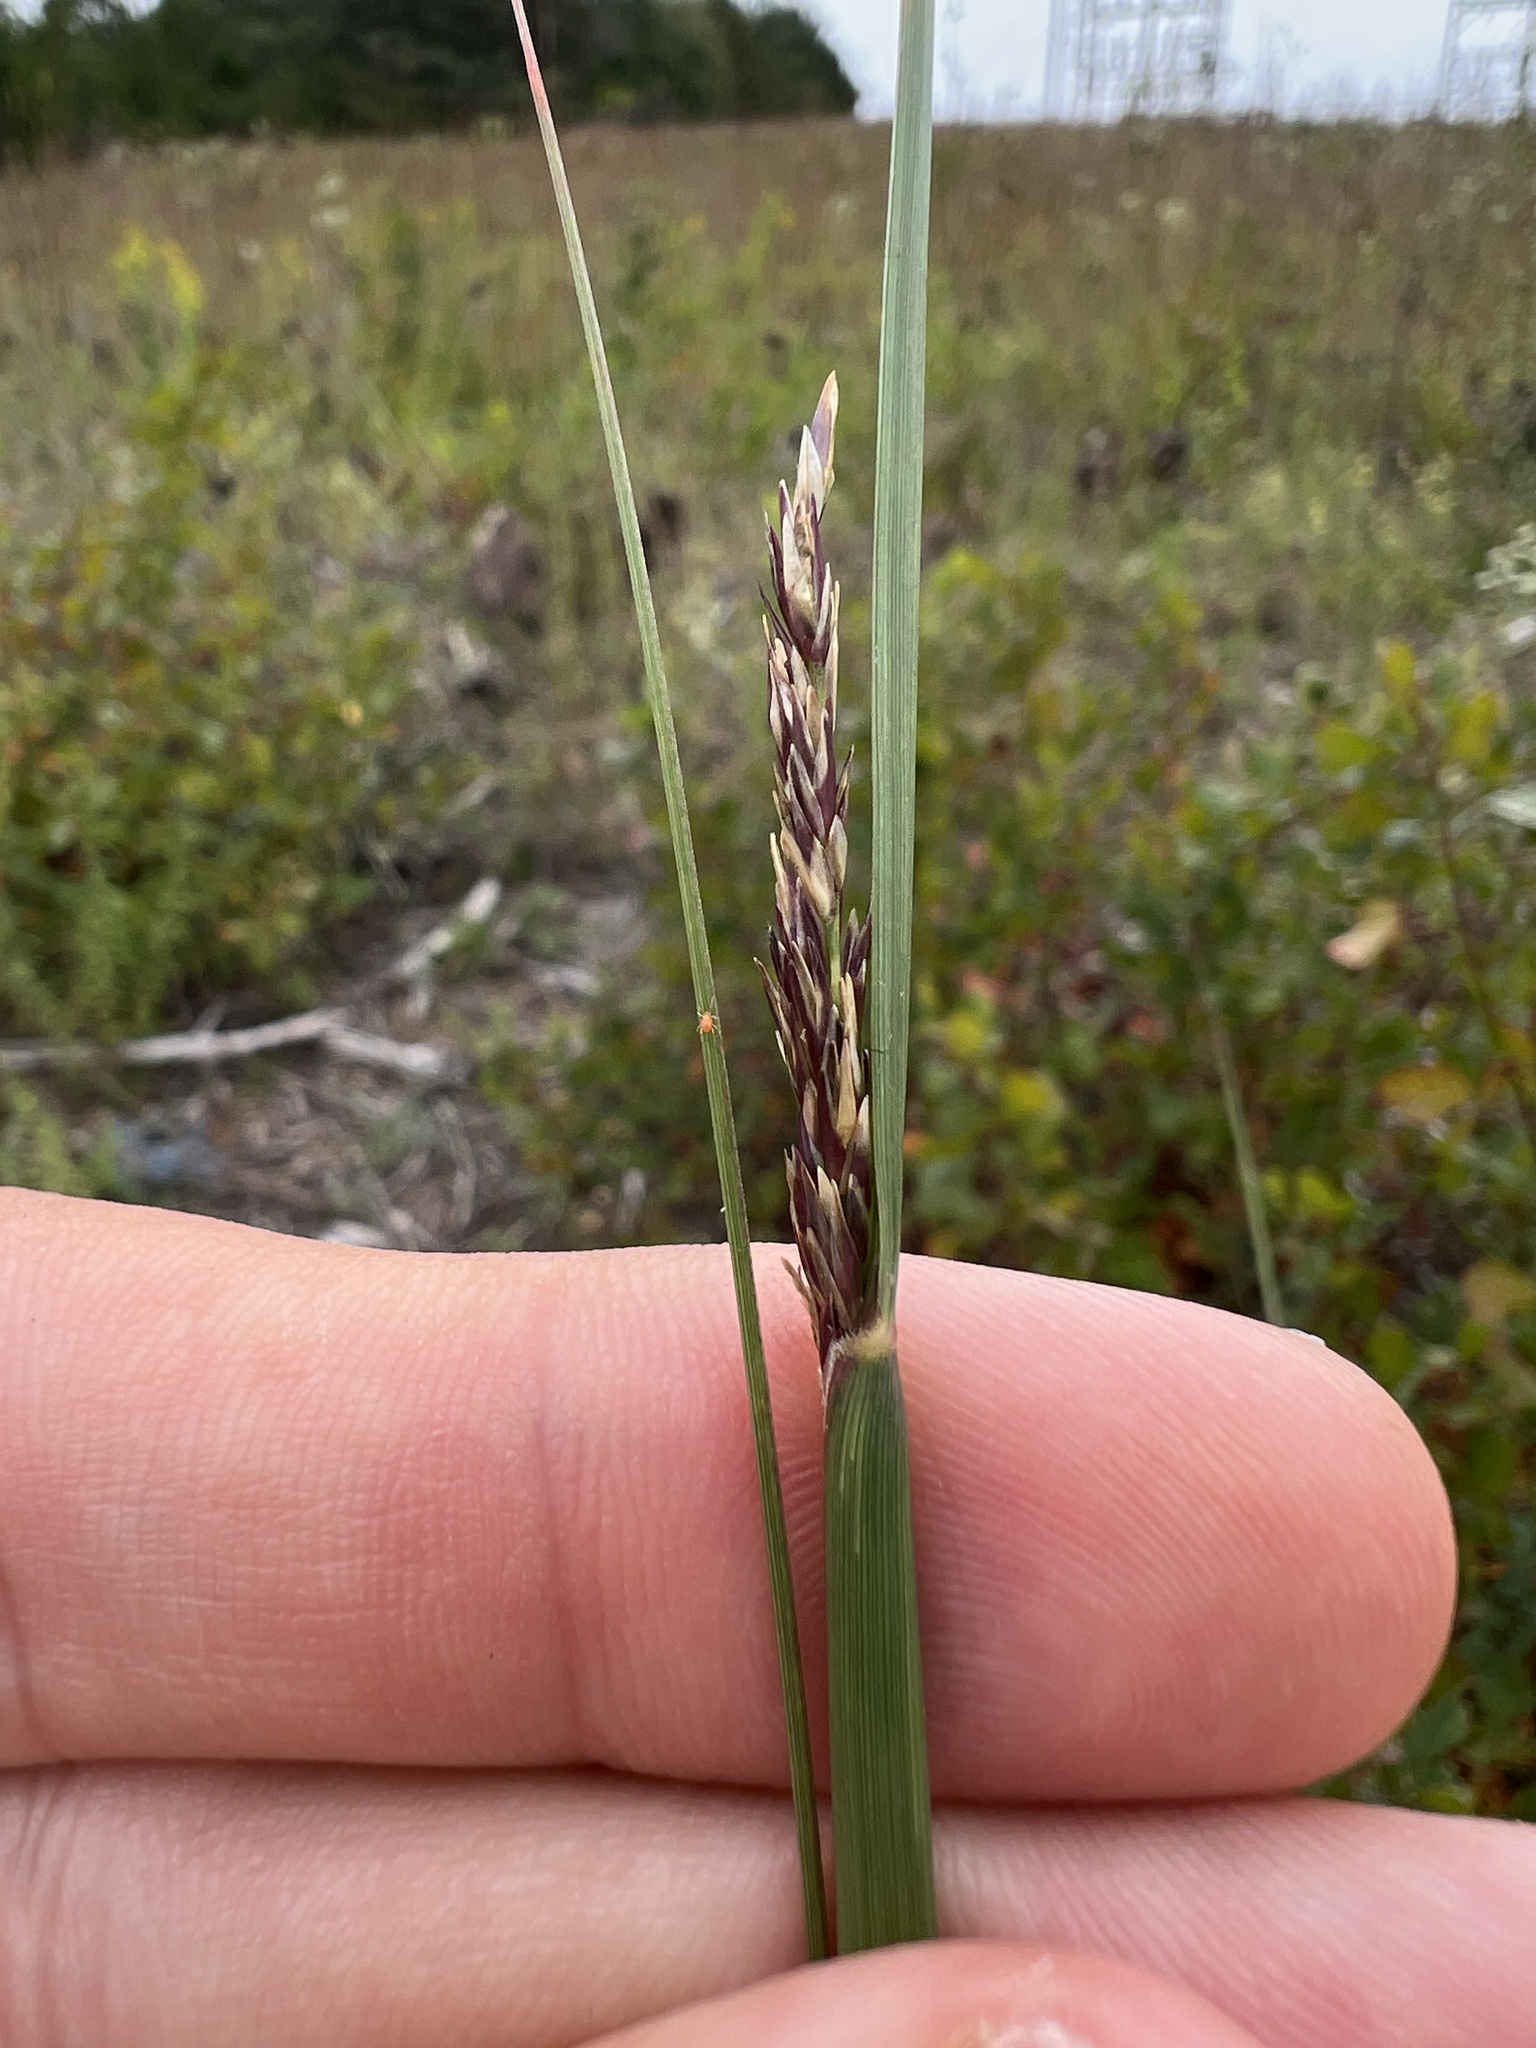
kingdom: Plantae
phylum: Tracheophyta
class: Liliopsida
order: Poales
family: Poaceae
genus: Sporobolus
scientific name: Sporobolus compositus
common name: Rough dropseed
